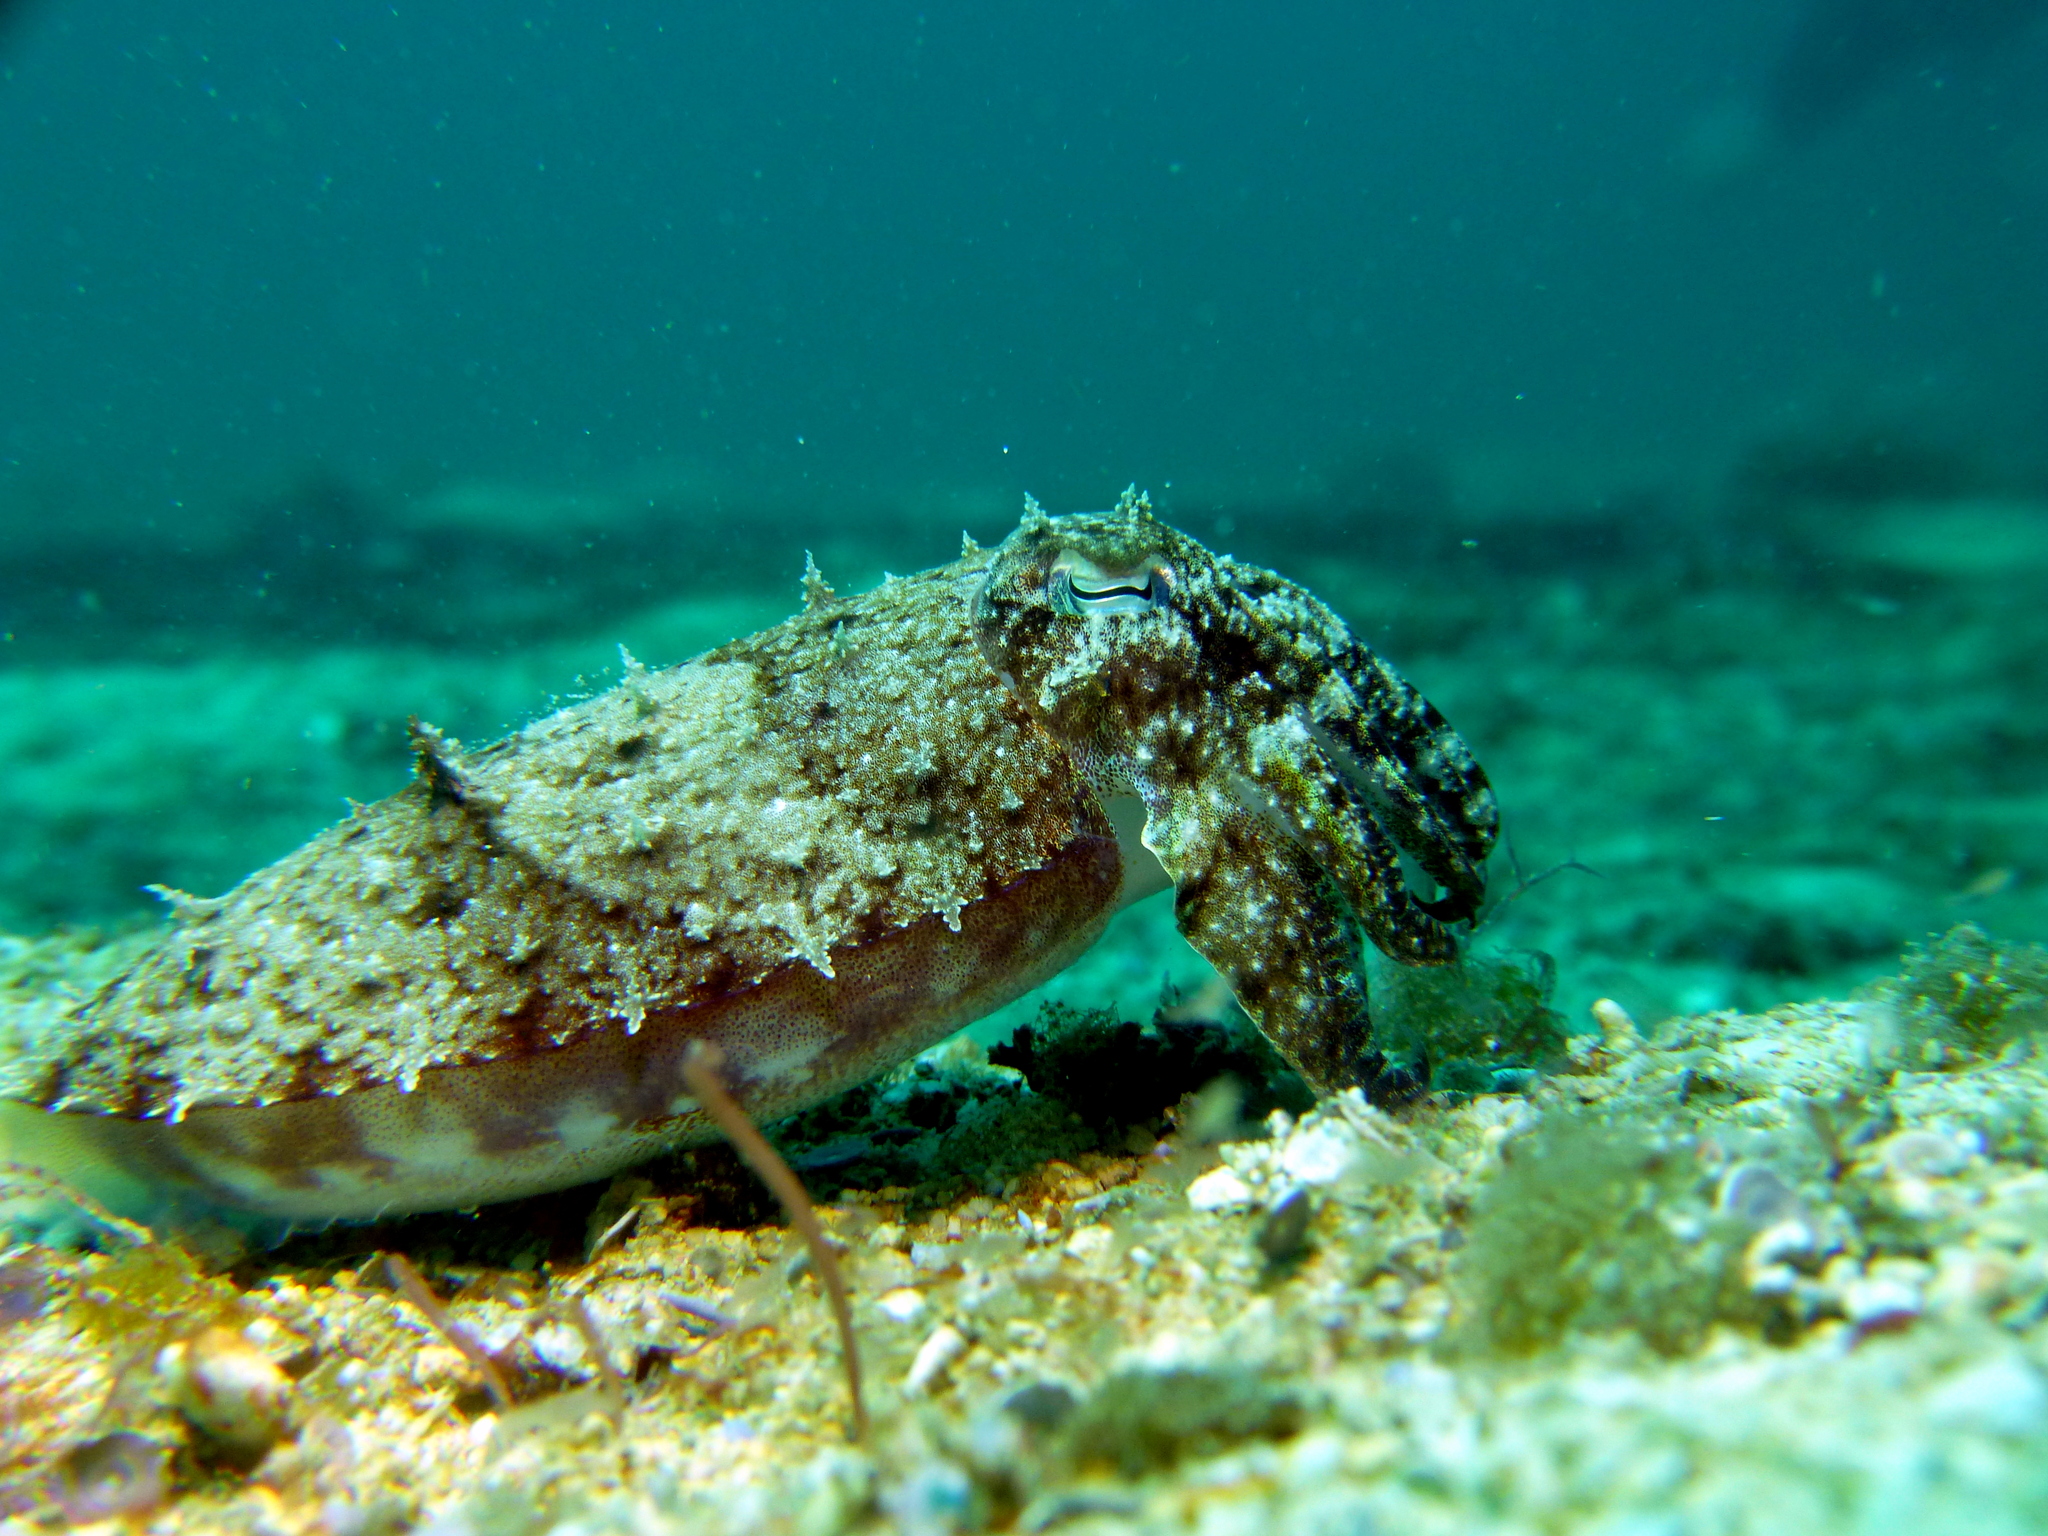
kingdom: Animalia
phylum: Mollusca
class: Cephalopoda
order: Sepiida
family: Sepiidae
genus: Ascarosepion
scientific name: Ascarosepion latimanus
